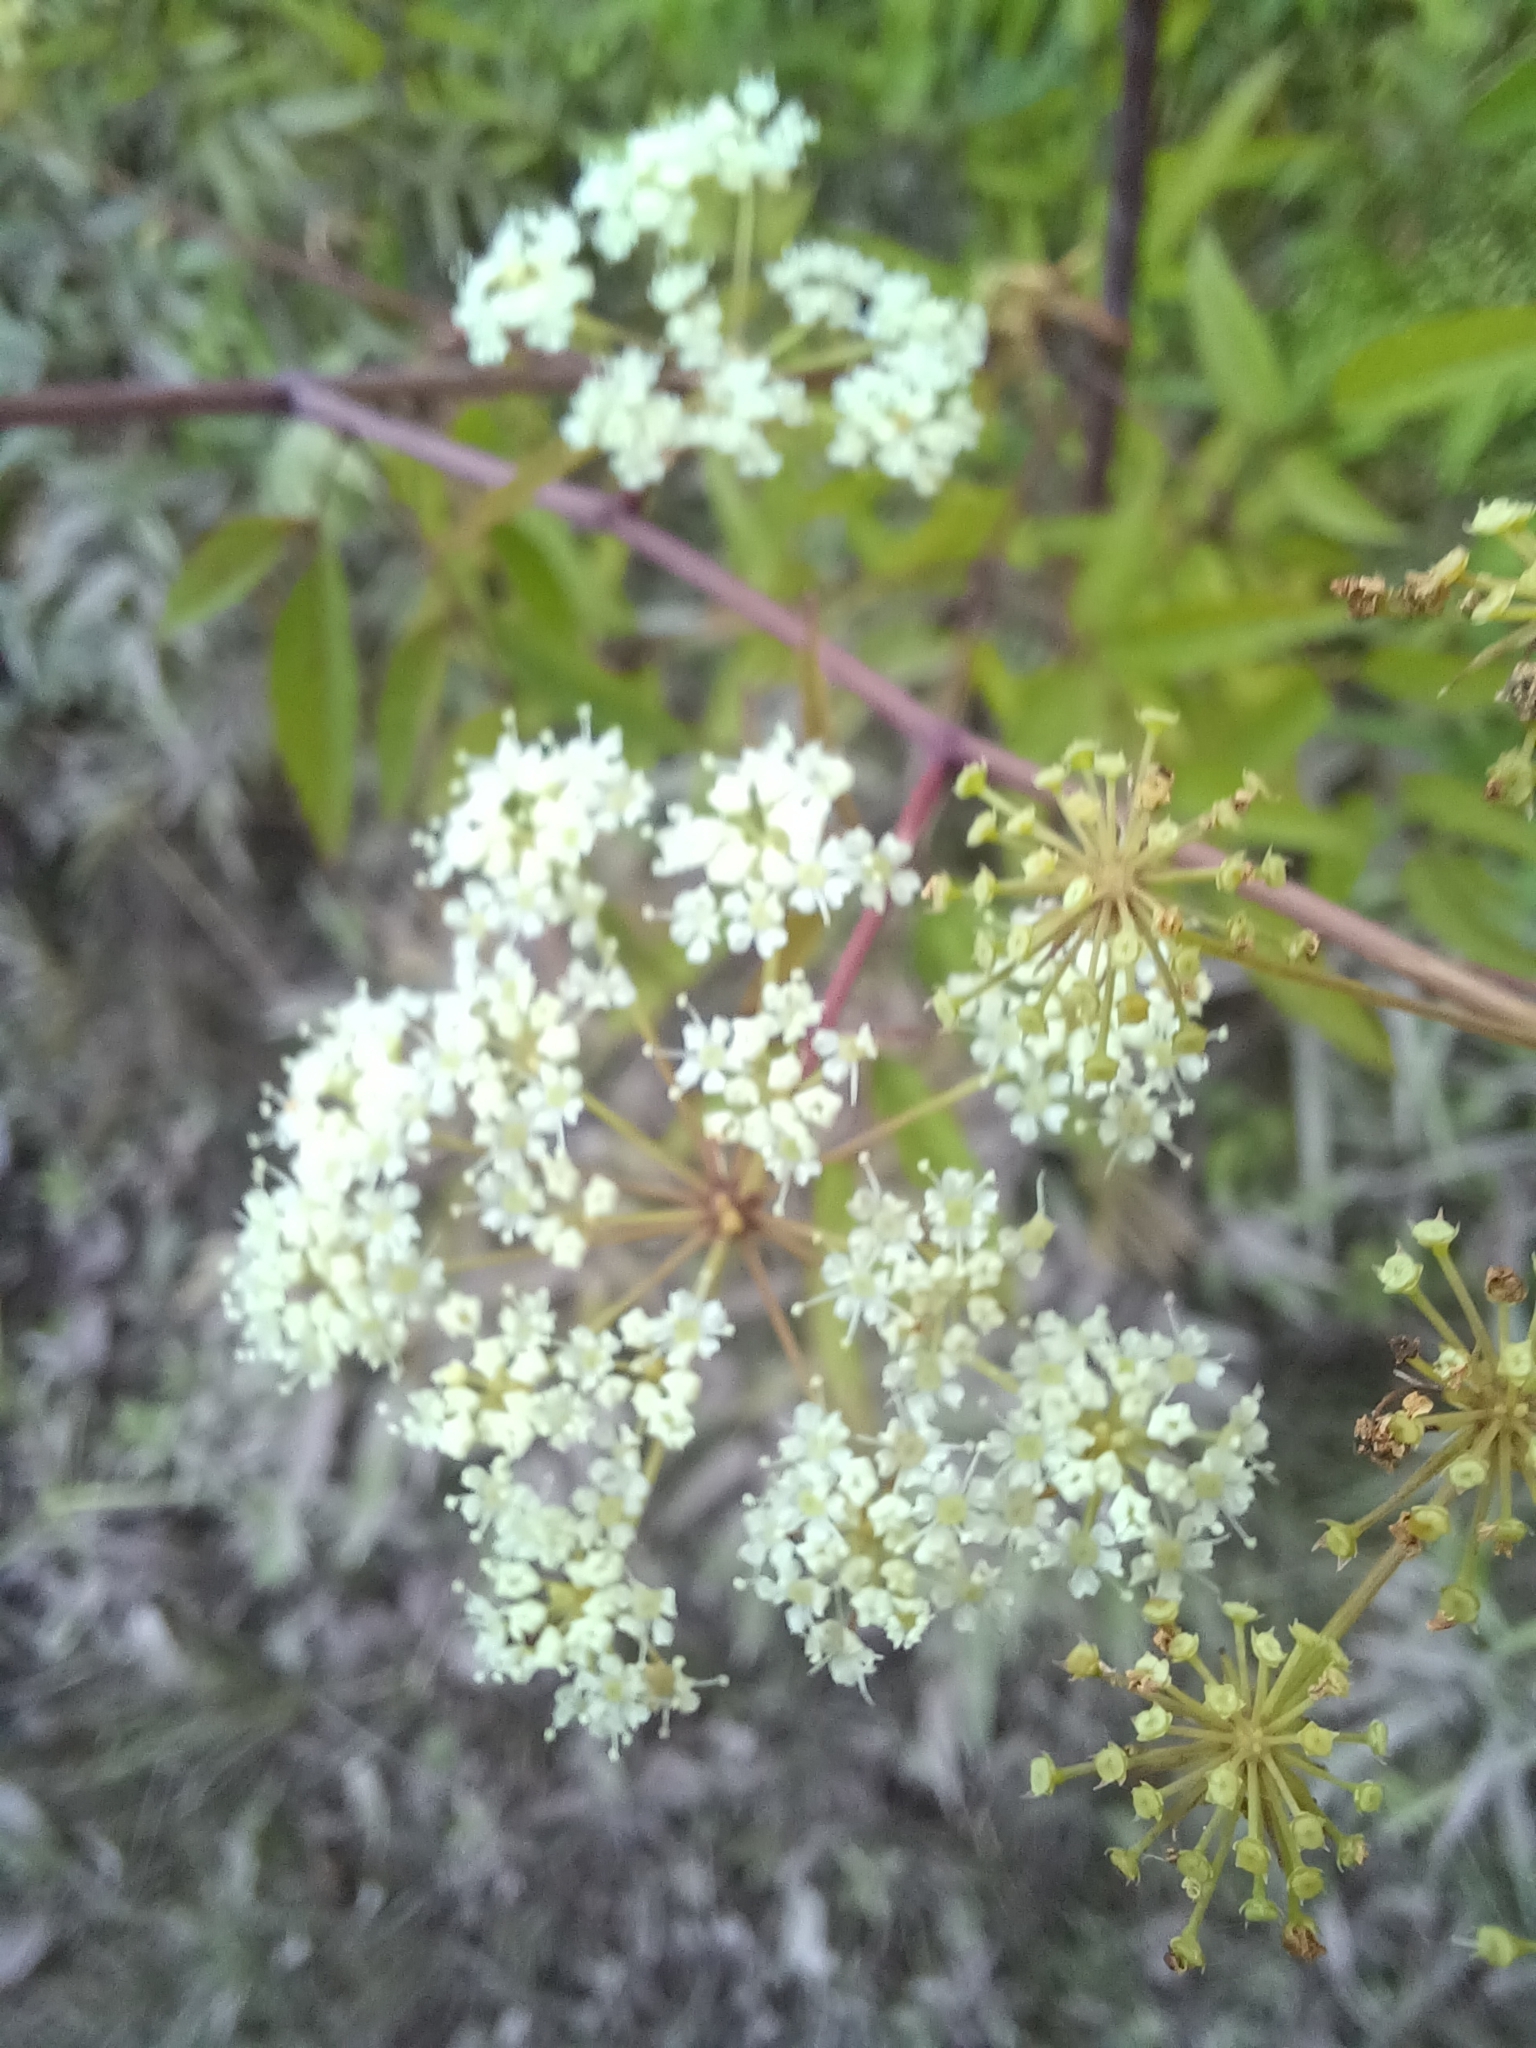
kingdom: Plantae
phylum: Tracheophyta
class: Magnoliopsida
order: Apiales
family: Apiaceae
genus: Cicuta
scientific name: Cicuta maculata
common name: Spotted cowbane
